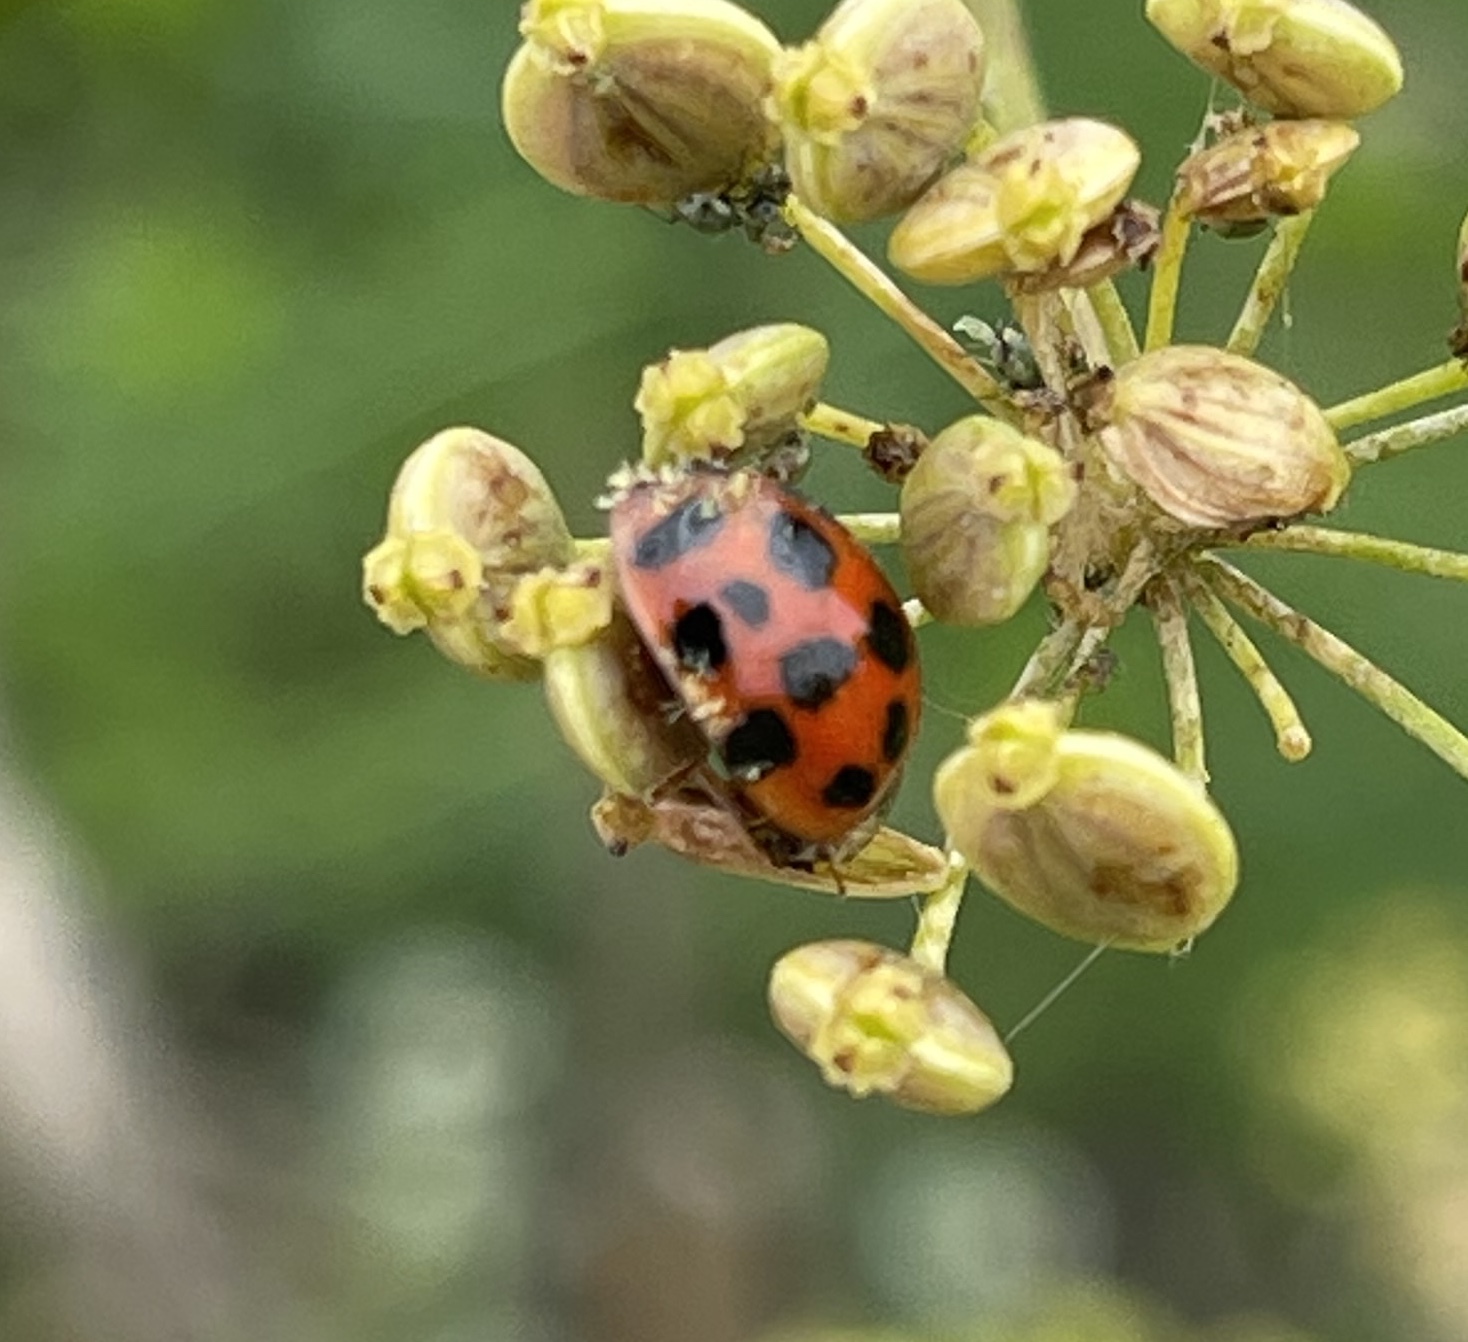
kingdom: Animalia
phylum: Arthropoda
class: Insecta
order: Coleoptera
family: Coccinellidae
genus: Harmonia
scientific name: Harmonia axyridis
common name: Harlequin ladybird
